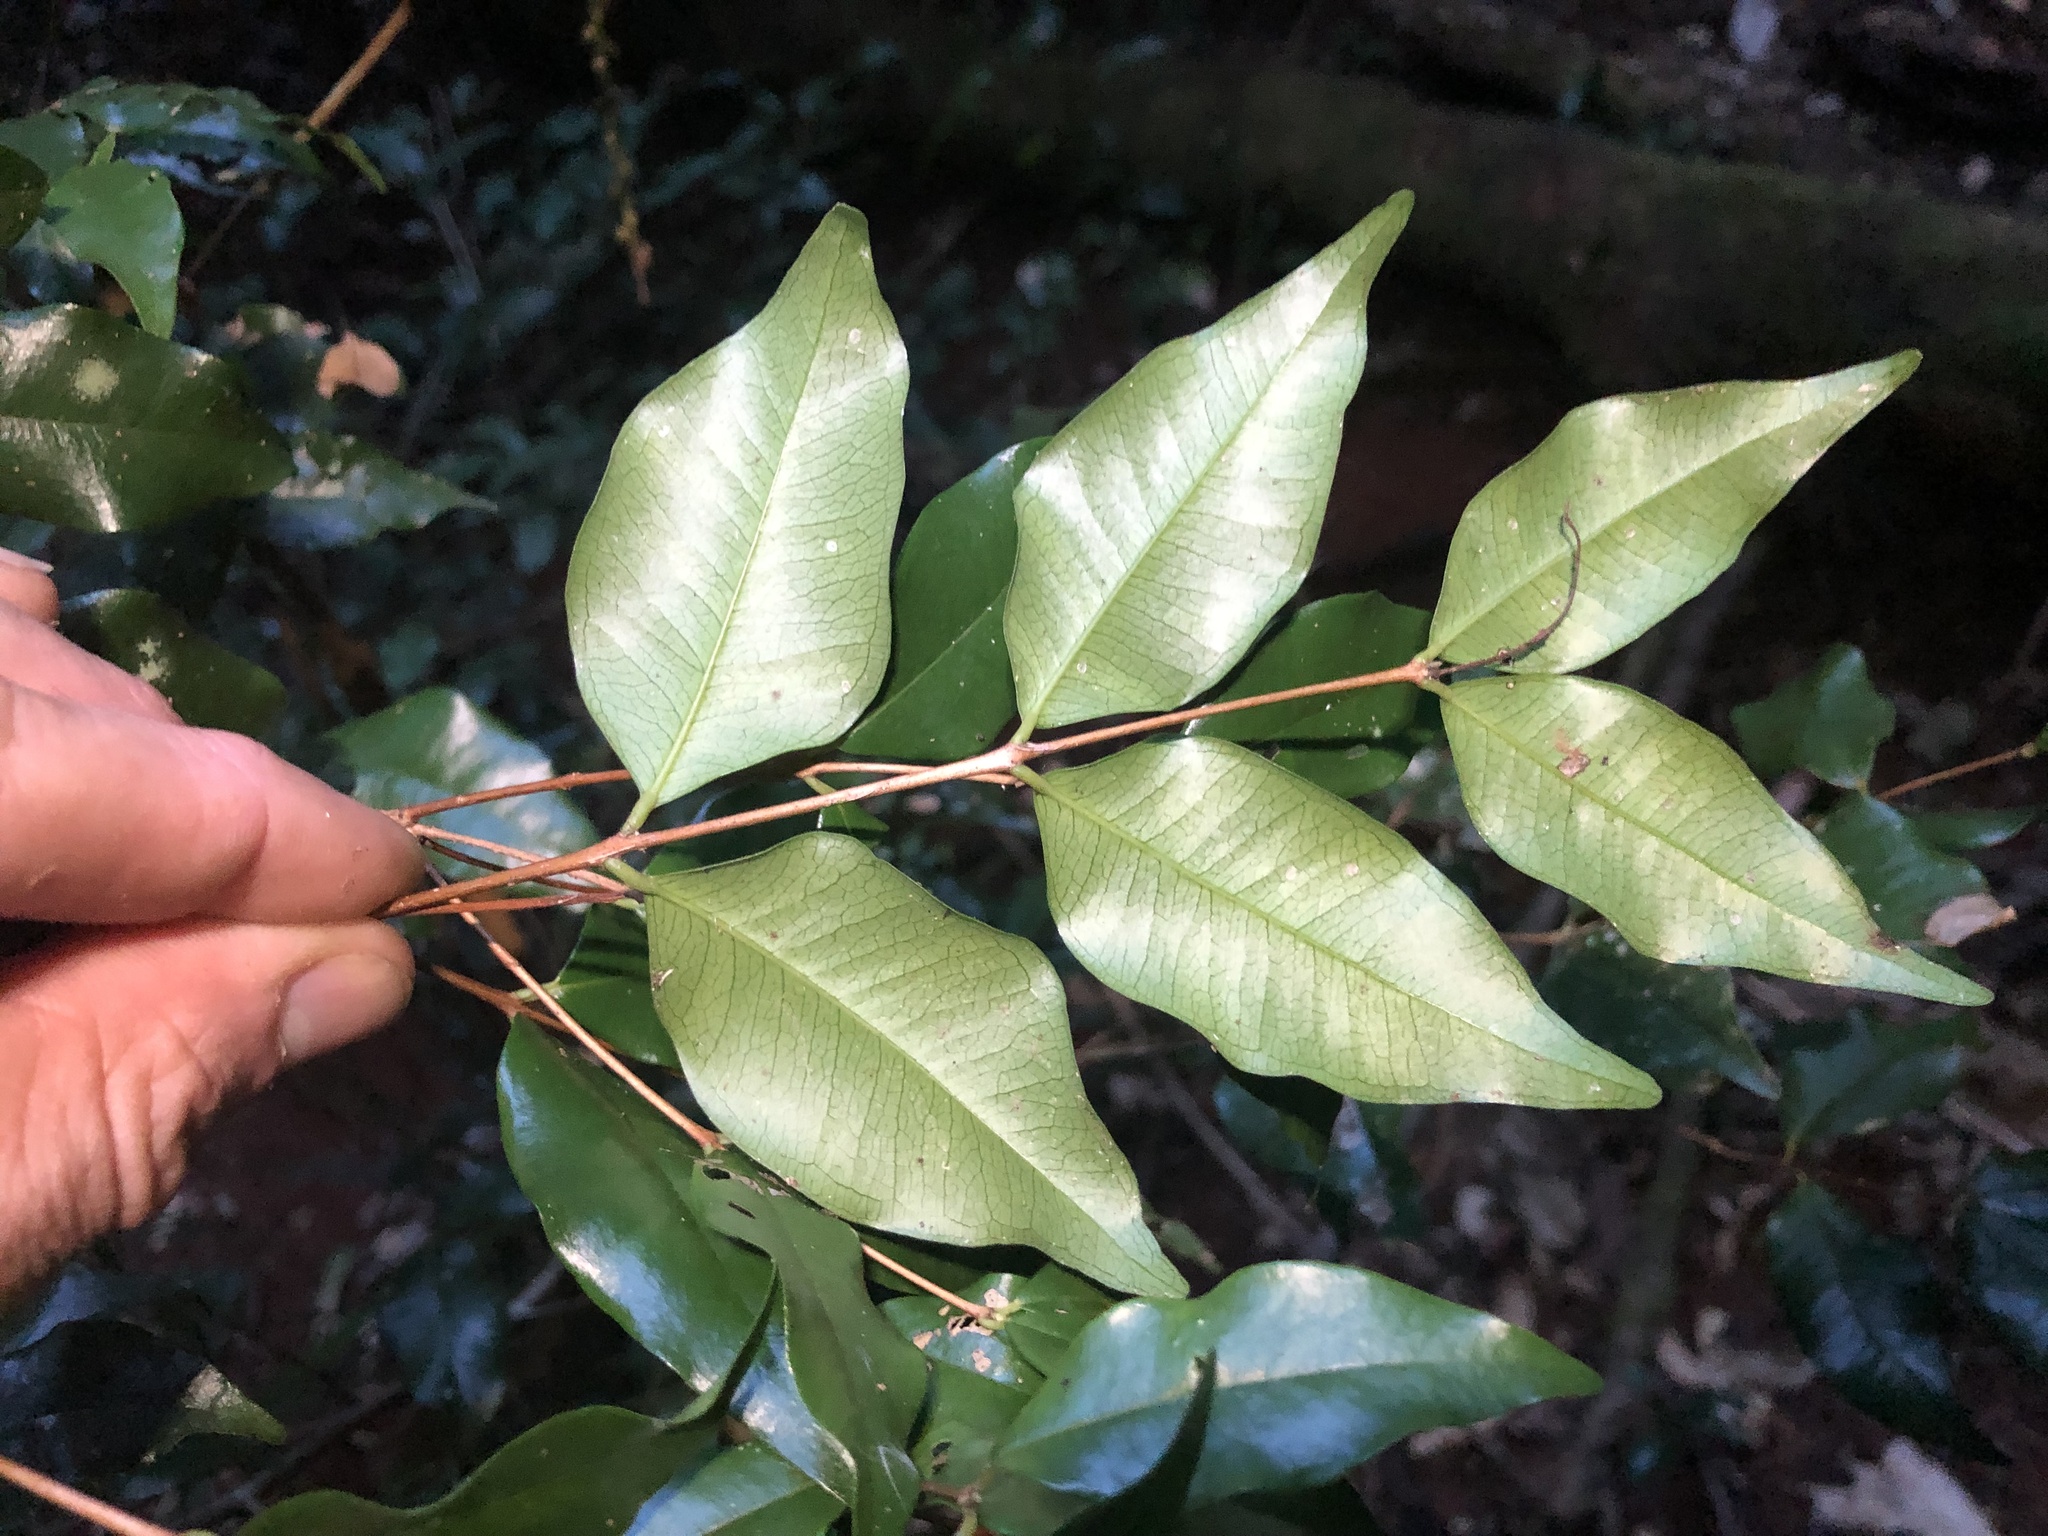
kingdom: Plantae
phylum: Tracheophyta
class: Magnoliopsida
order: Myrtales
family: Myrtaceae
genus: Syzygium
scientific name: Syzygium francisii
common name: Giant water-gum
